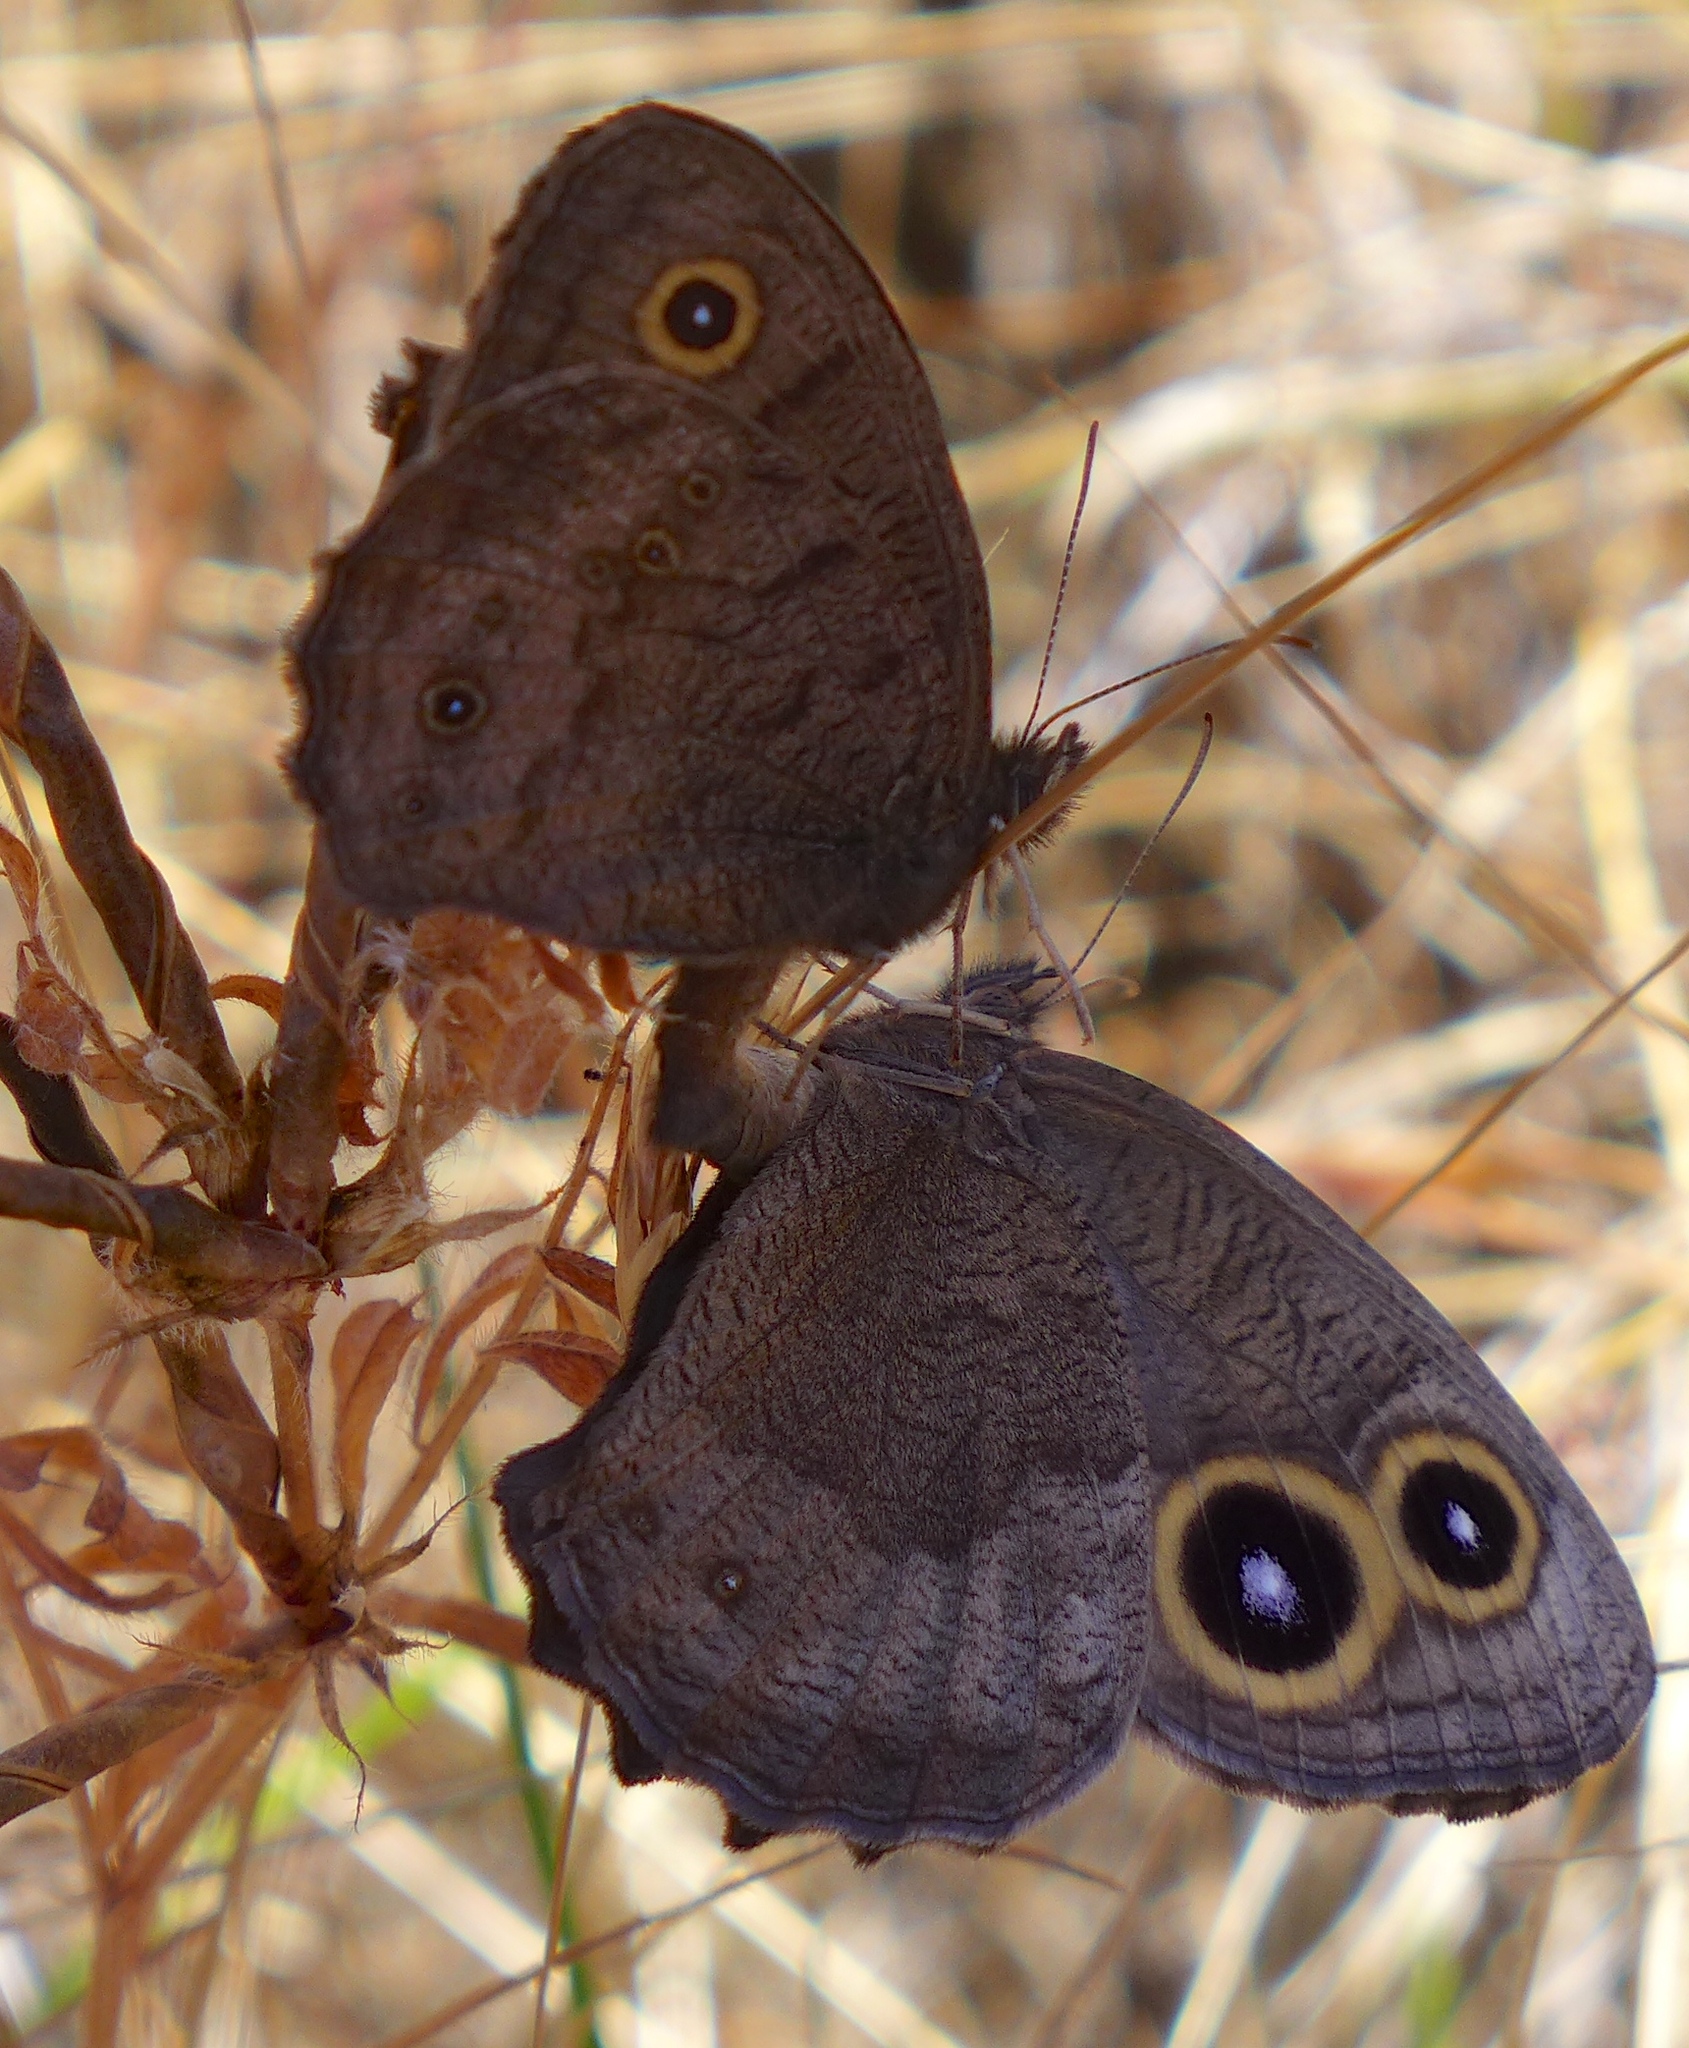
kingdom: Animalia
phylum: Arthropoda
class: Insecta
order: Lepidoptera
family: Nymphalidae
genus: Cercyonis
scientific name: Cercyonis pegala
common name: Common wood-nymph
